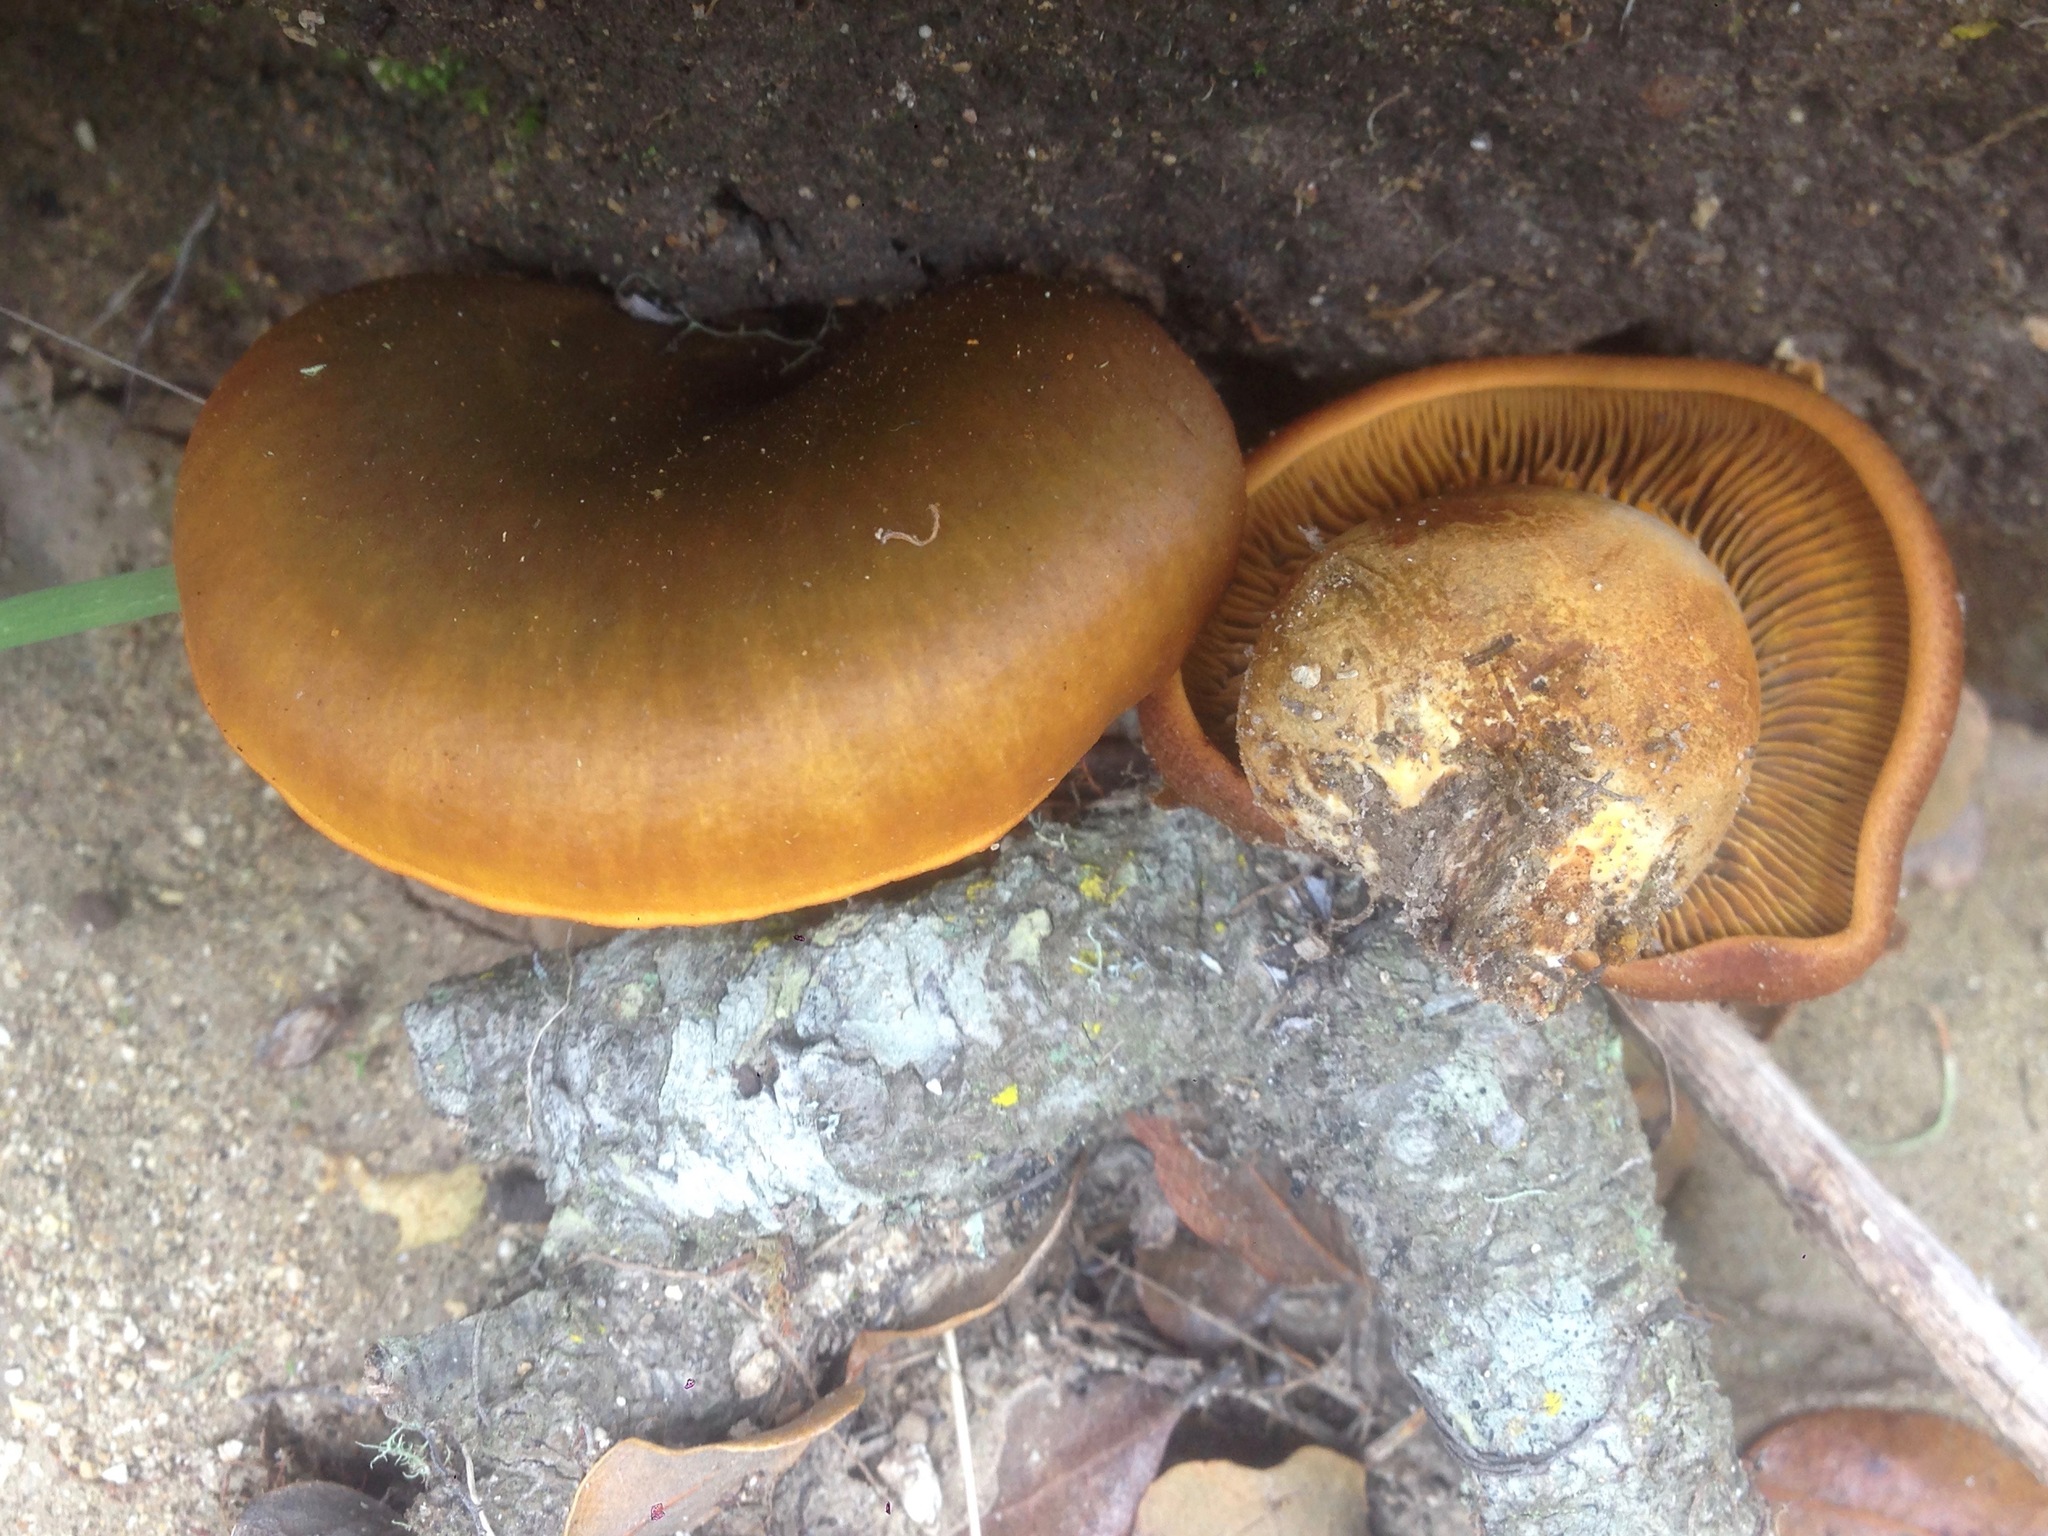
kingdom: Fungi
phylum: Basidiomycota
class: Agaricomycetes
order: Agaricales
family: Omphalotaceae
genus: Omphalotus
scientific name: Omphalotus olivascens
